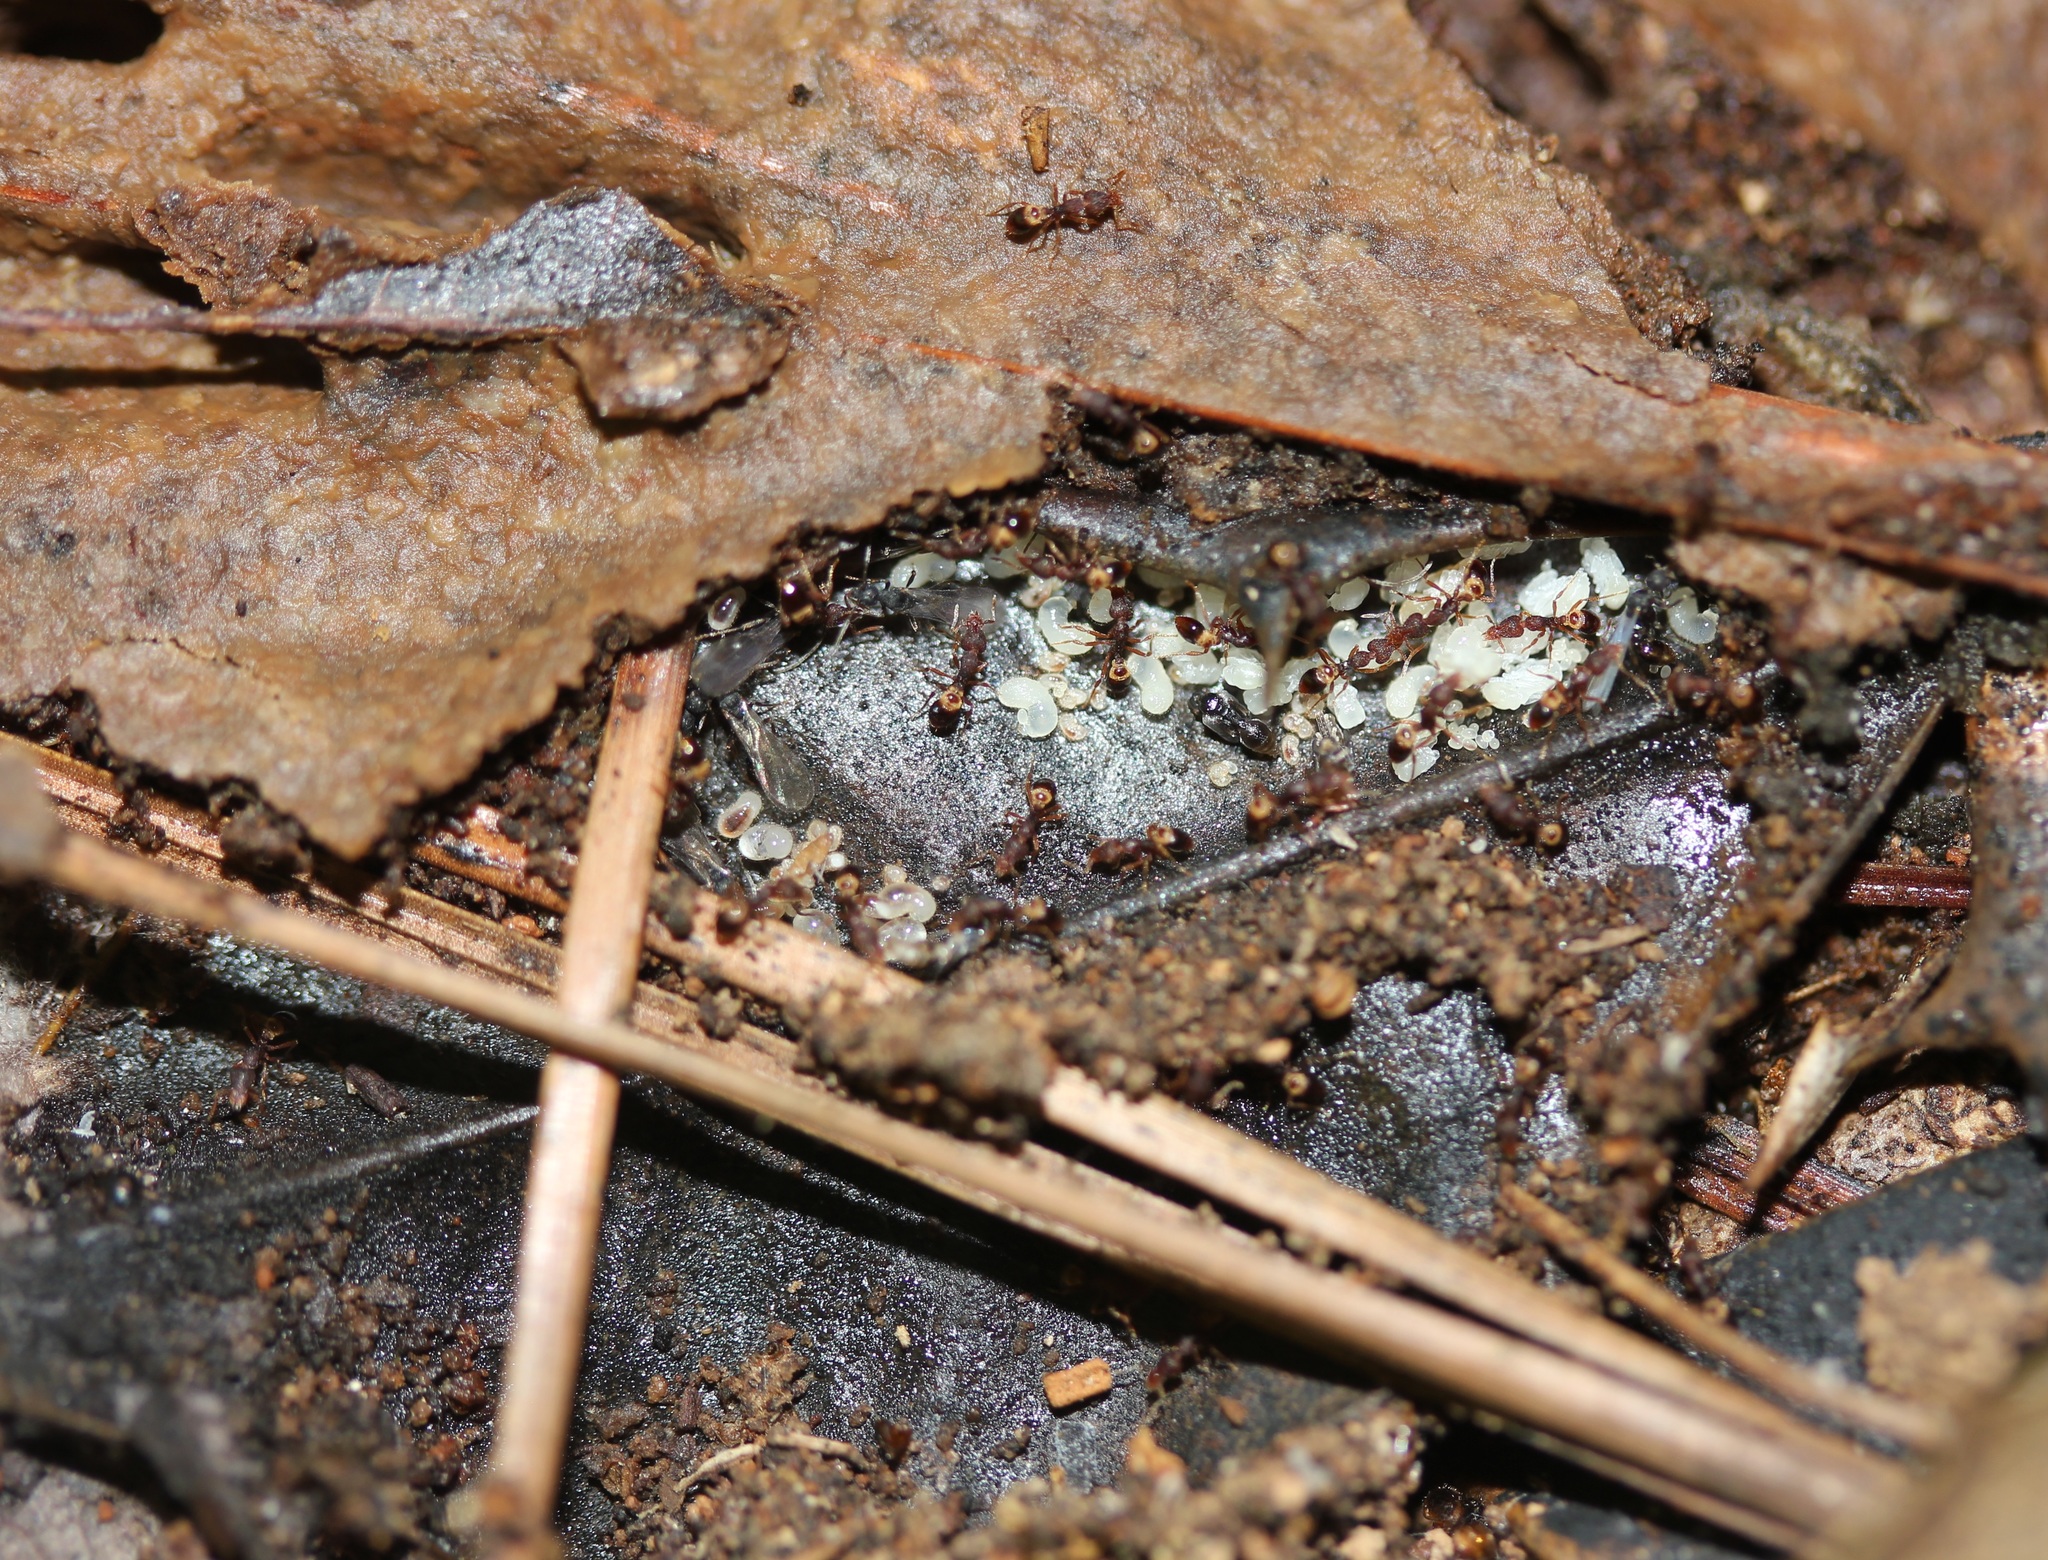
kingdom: Animalia
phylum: Arthropoda
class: Insecta
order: Hymenoptera
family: Formicidae
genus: Pyramica
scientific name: Pyramica rostrata
